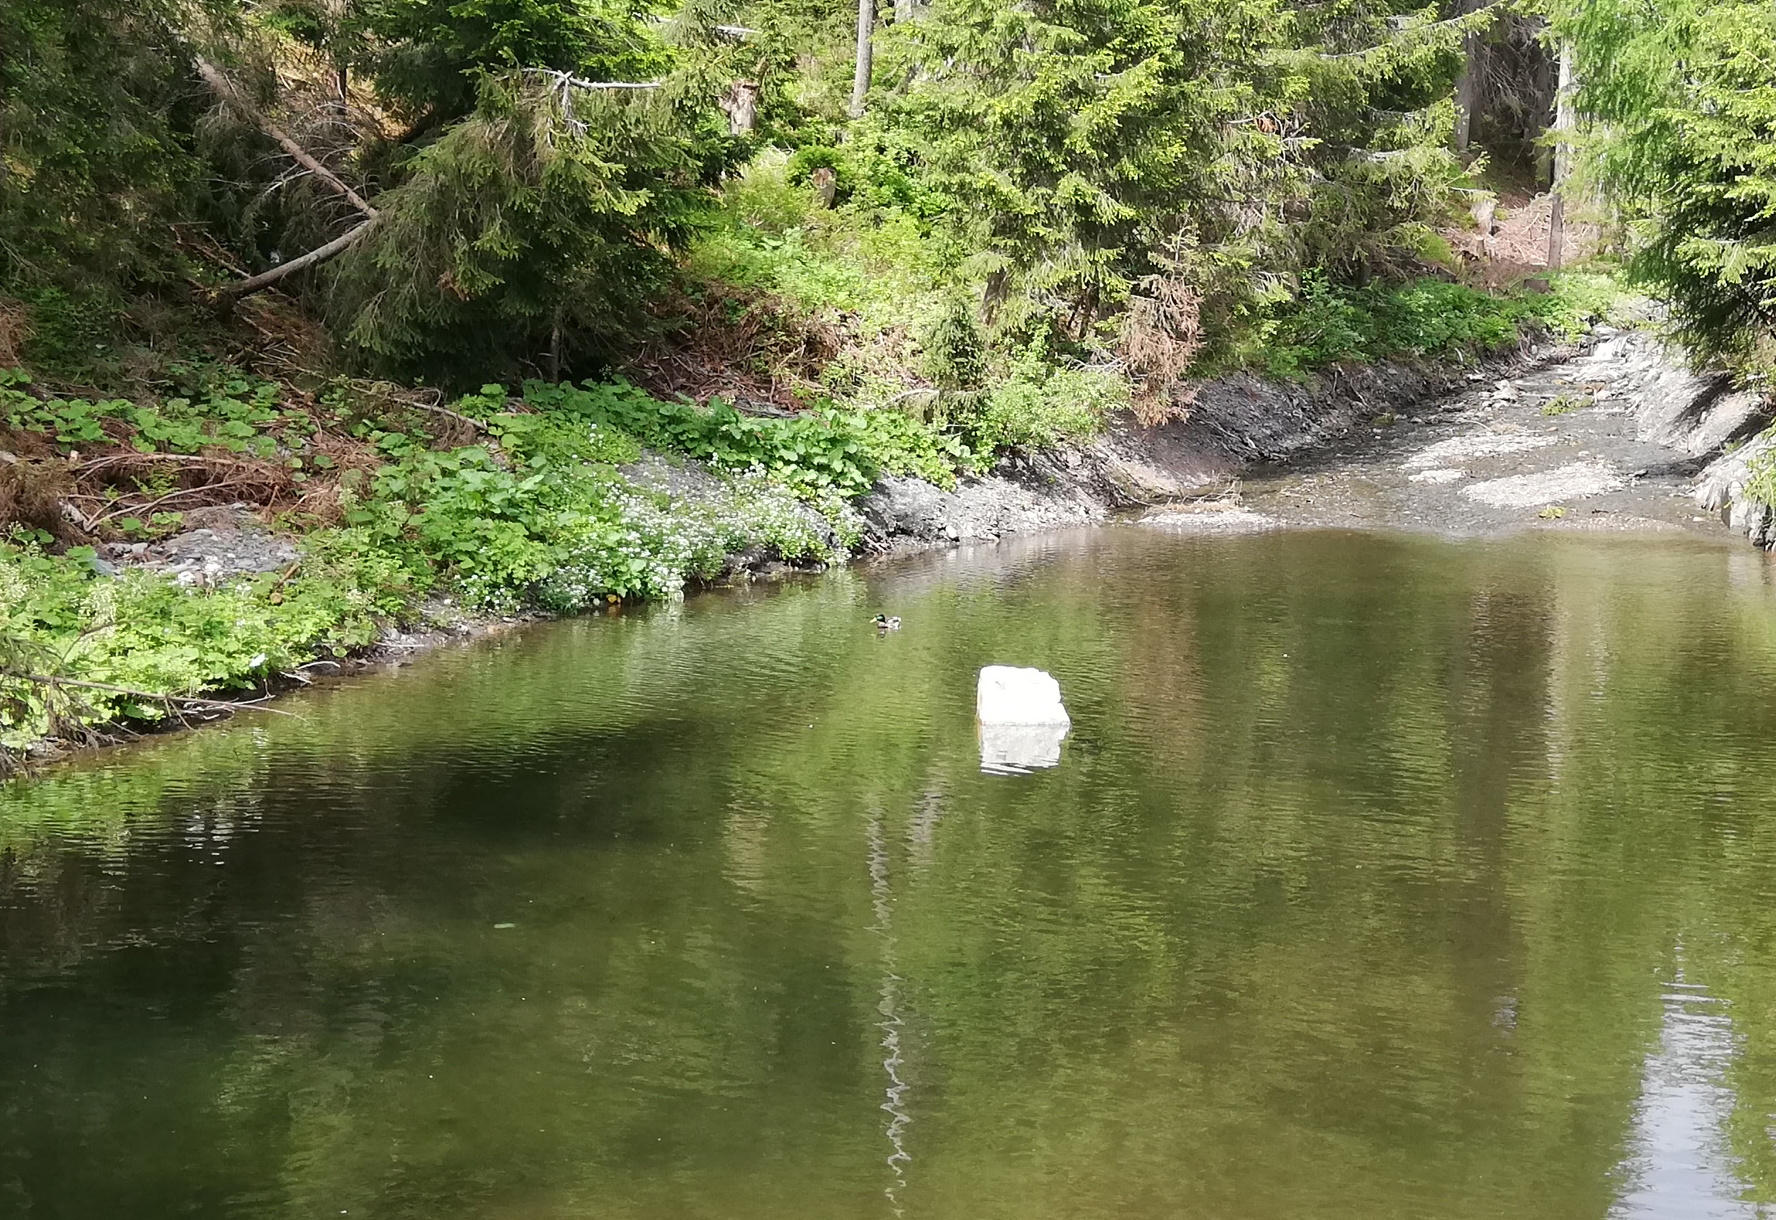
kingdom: Animalia
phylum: Chordata
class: Aves
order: Anseriformes
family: Anatidae
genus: Anas
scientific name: Anas platyrhynchos
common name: Mallard
